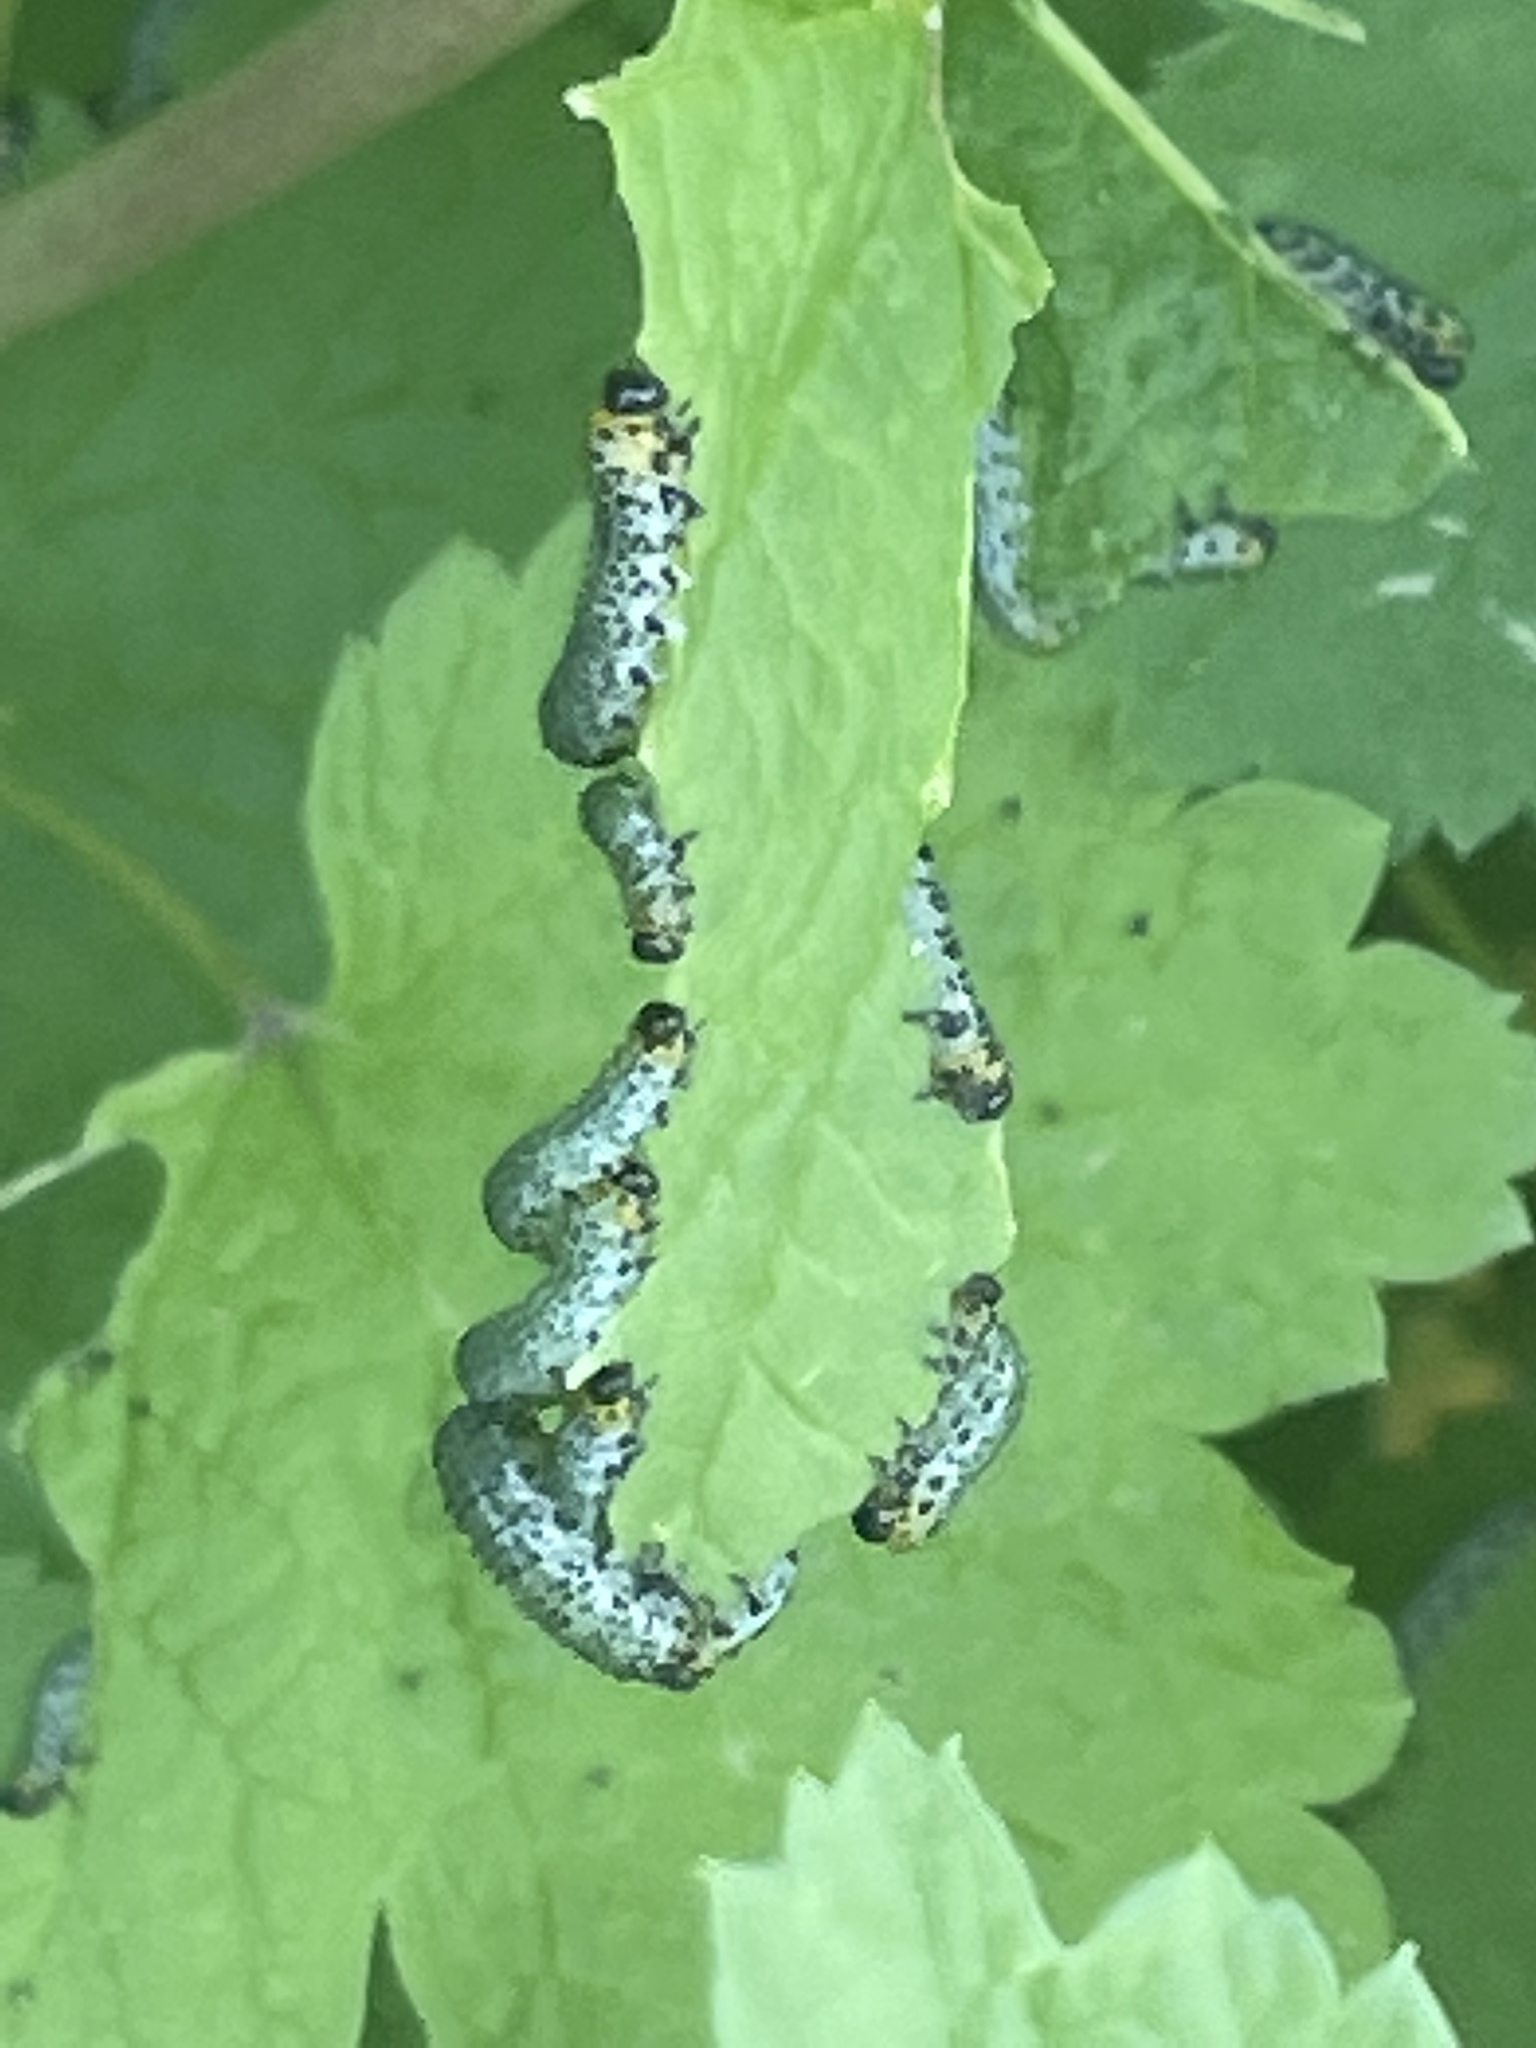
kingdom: Animalia
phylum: Arthropoda
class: Insecta
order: Hymenoptera
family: Tenthredinidae
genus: Nematus
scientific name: Nematus ribesii
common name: Imported currantworm
